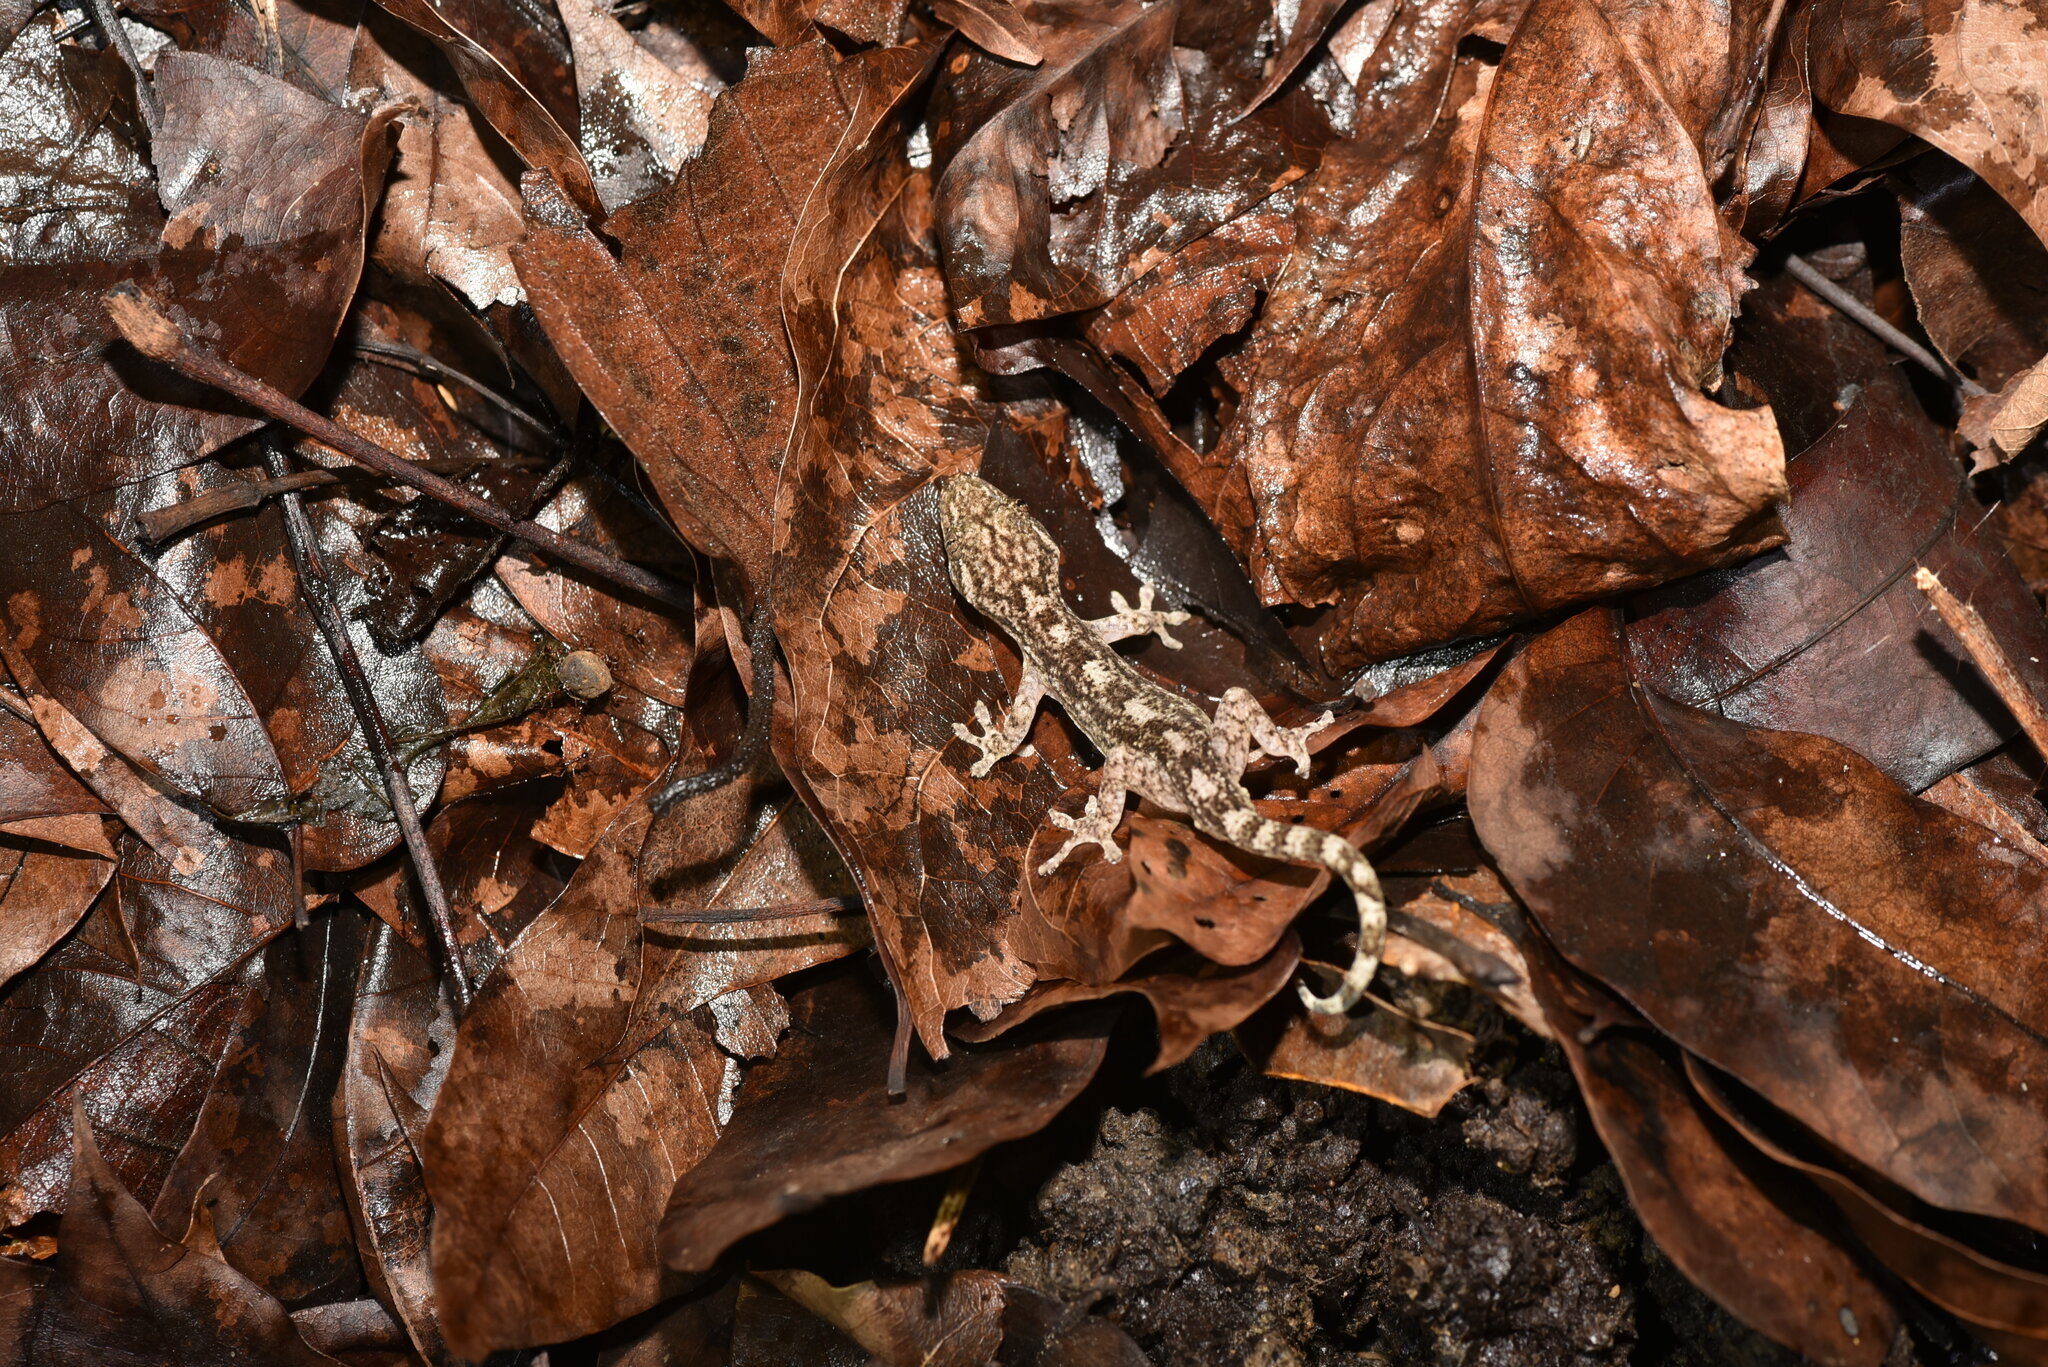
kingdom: Animalia
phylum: Chordata
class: Squamata
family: Gekkonidae
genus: Gekko
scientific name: Gekko hokouensis
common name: Kwangsi gecko
